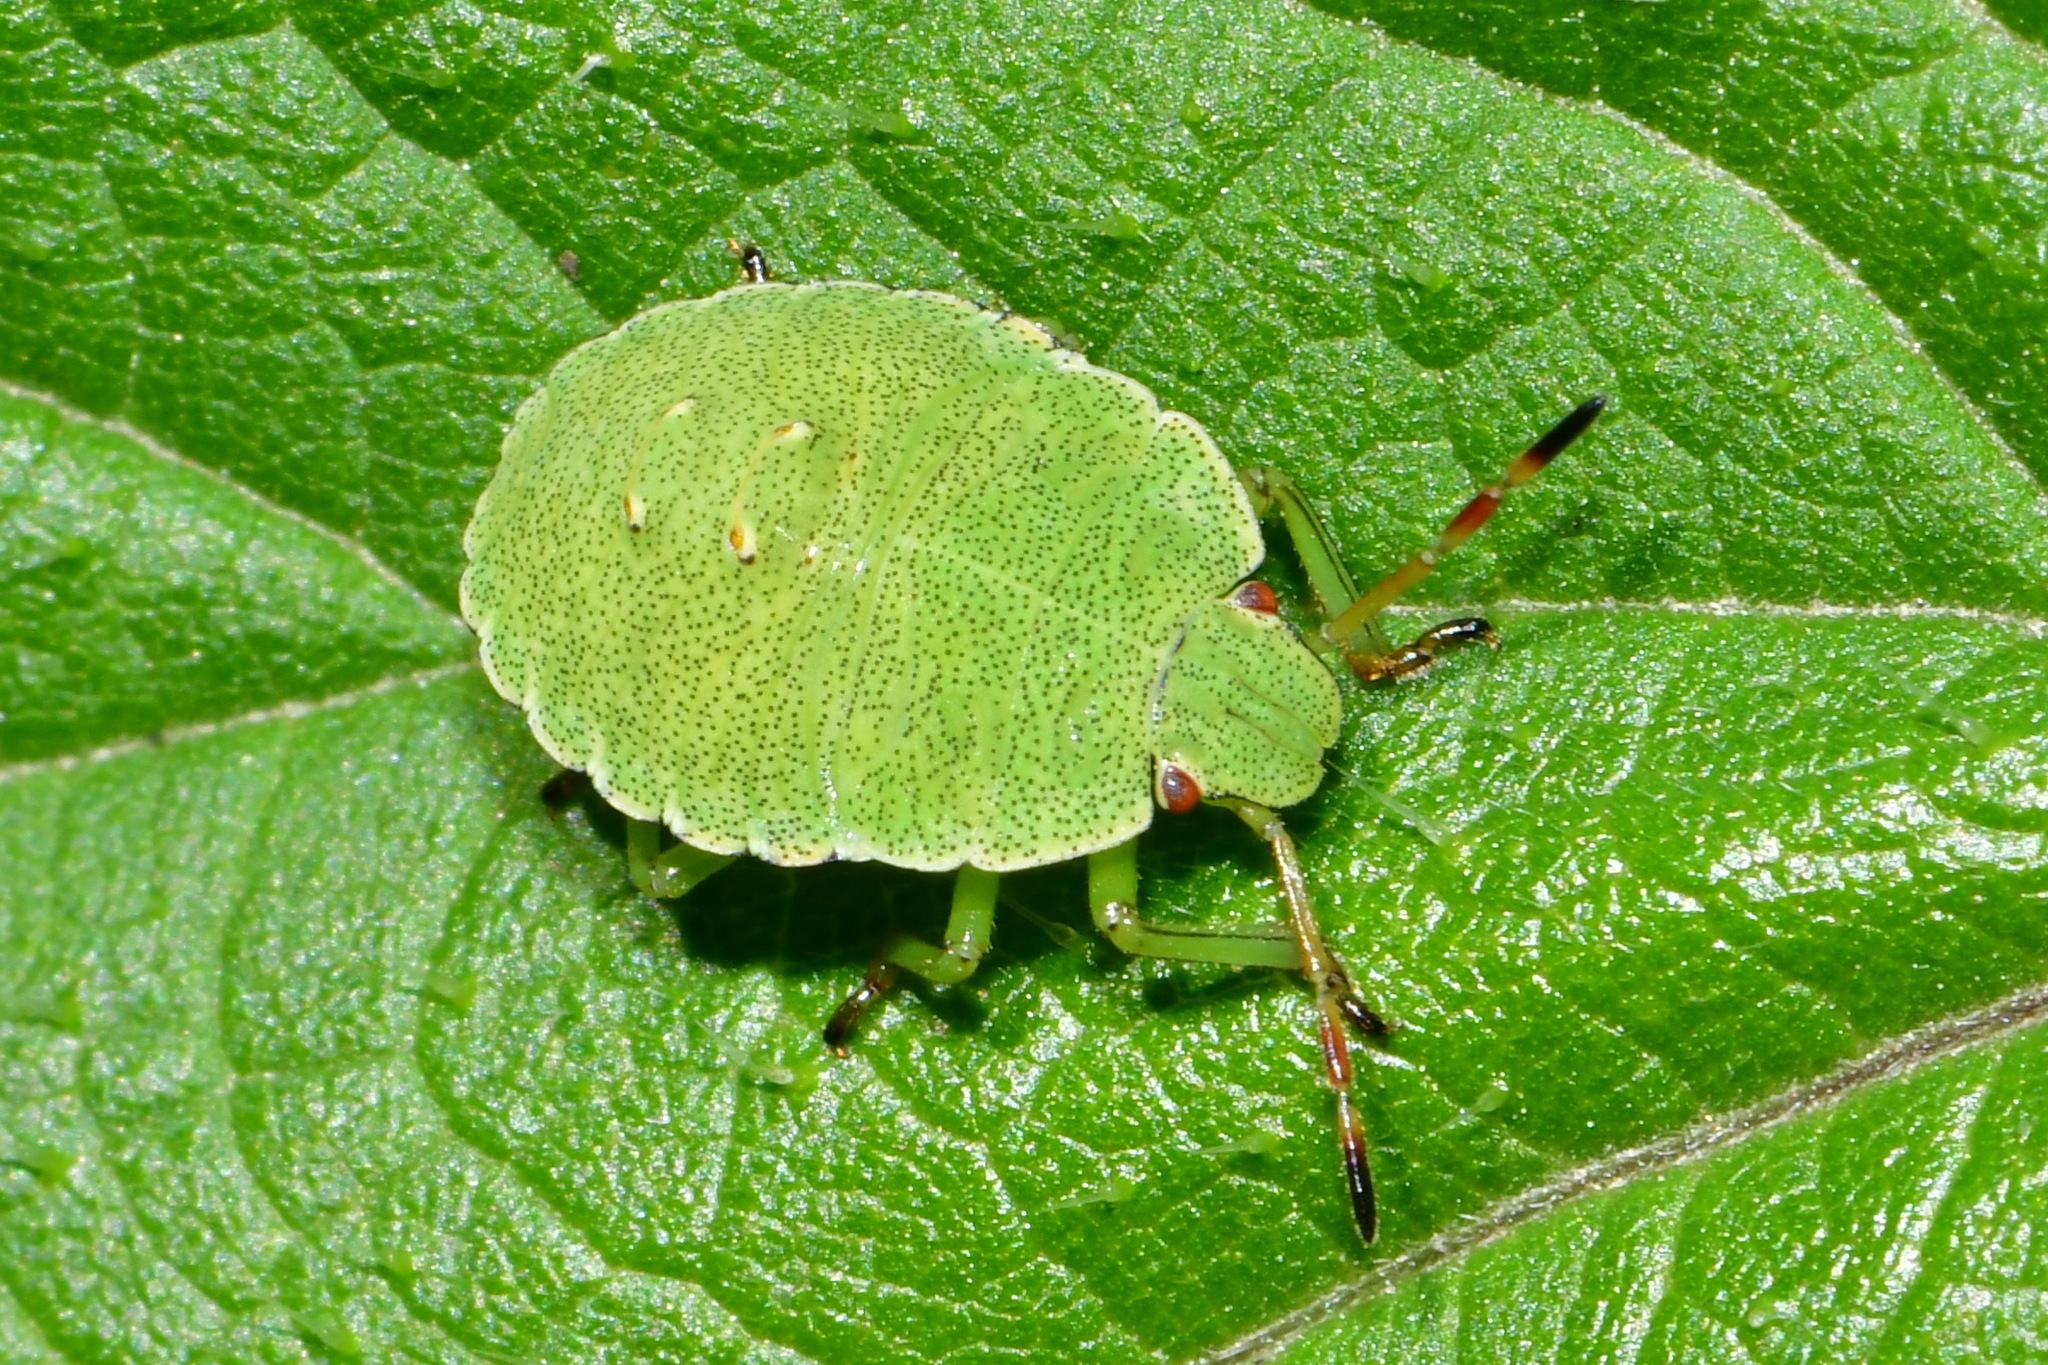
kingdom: Animalia
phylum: Arthropoda
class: Insecta
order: Hemiptera
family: Pentatomidae
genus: Palomena
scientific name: Palomena prasina
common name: Green shieldbug
